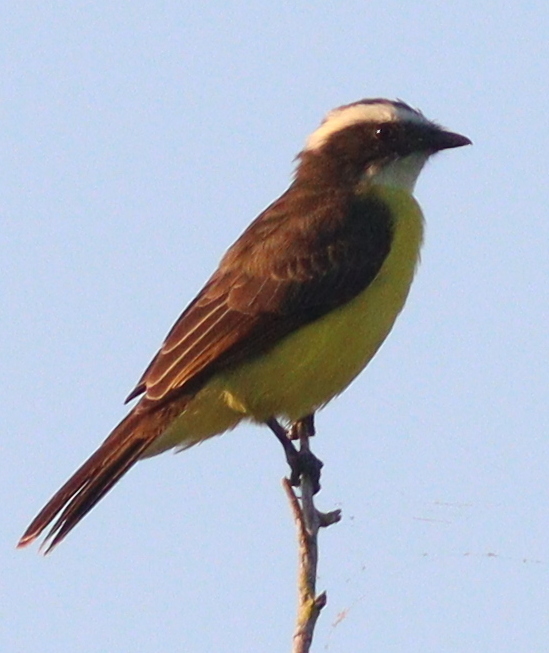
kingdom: Animalia
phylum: Chordata
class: Aves
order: Passeriformes
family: Tyrannidae
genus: Myiozetetes
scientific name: Myiozetetes cayanensis
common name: Rusty-margined flycatcher
